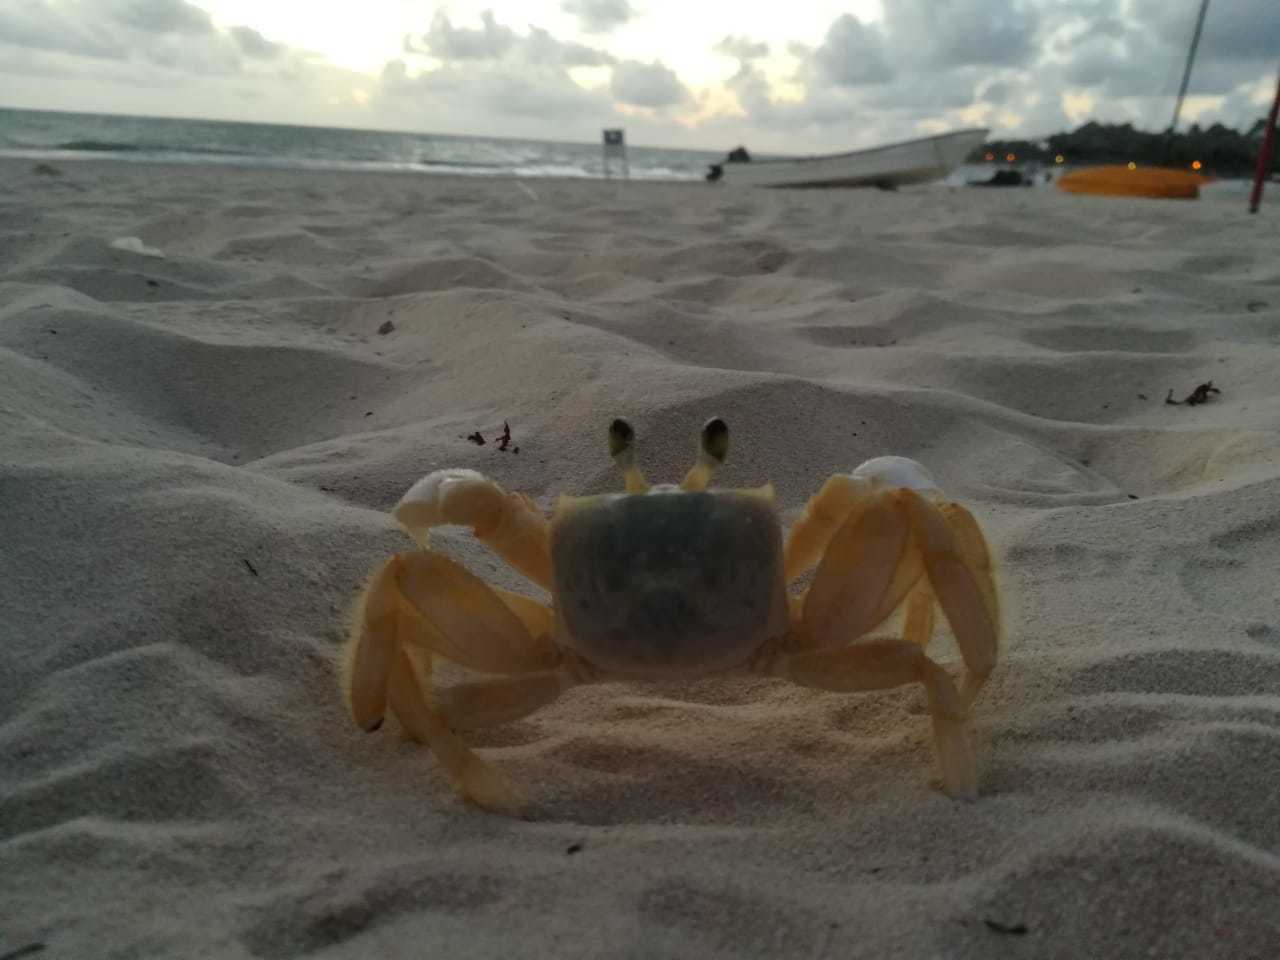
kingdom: Animalia
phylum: Arthropoda
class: Malacostraca
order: Decapoda
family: Ocypodidae
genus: Ocypode
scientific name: Ocypode quadrata
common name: Ghost crab
